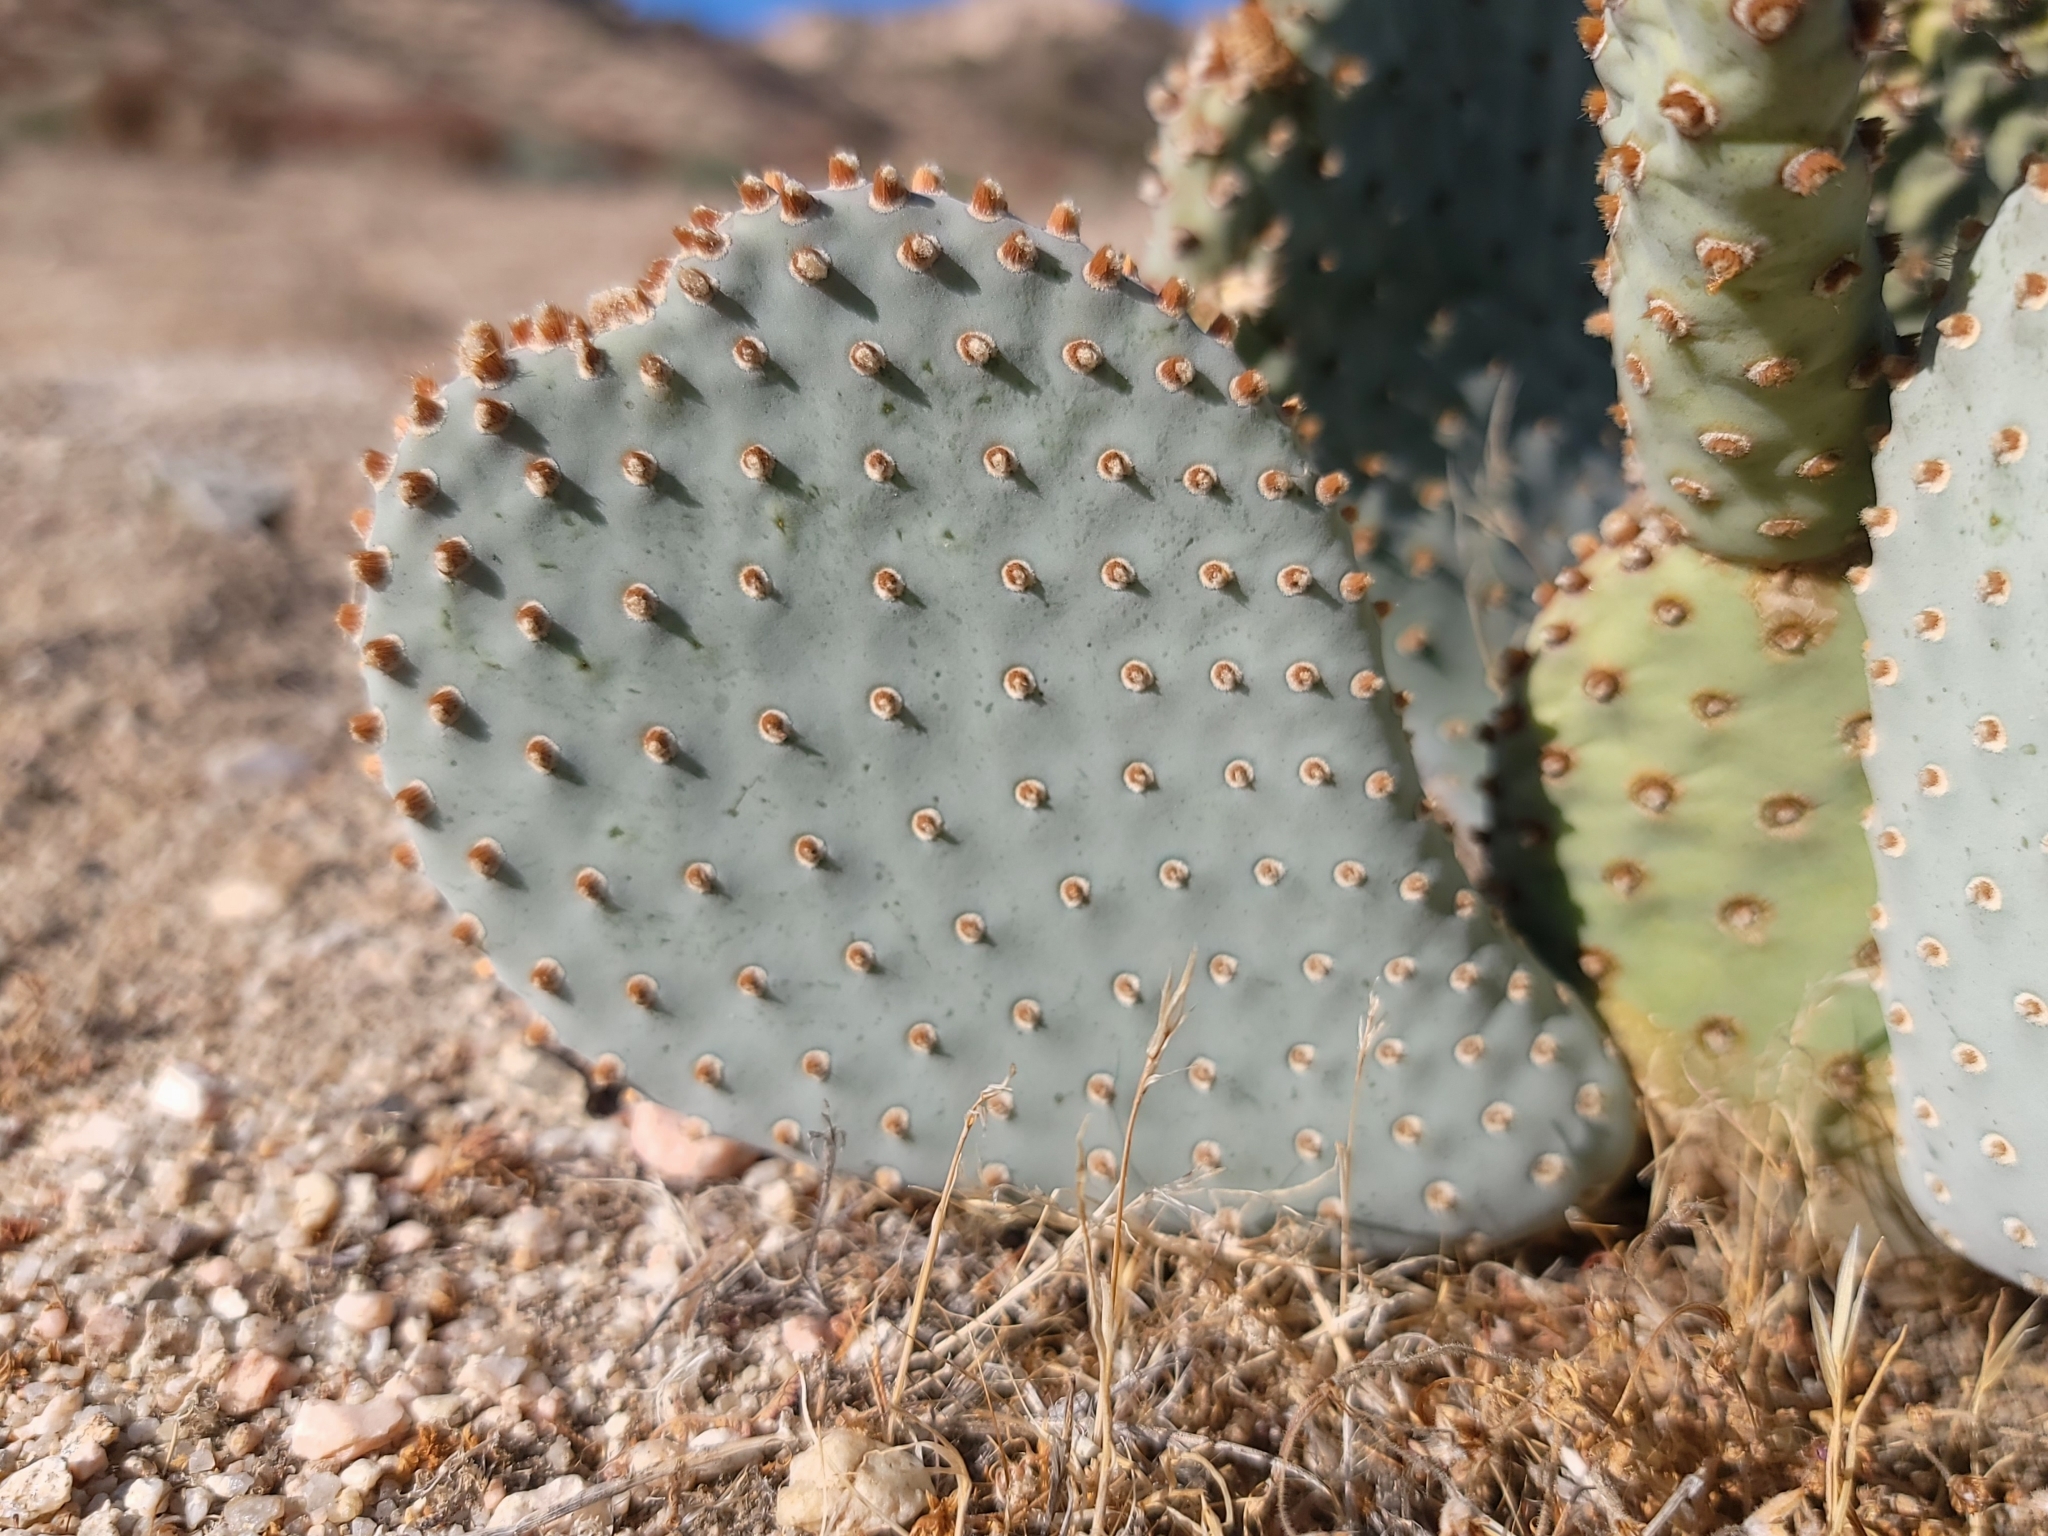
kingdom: Plantae
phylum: Tracheophyta
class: Magnoliopsida
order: Caryophyllales
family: Cactaceae
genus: Opuntia
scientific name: Opuntia basilaris
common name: Beavertail prickly-pear
